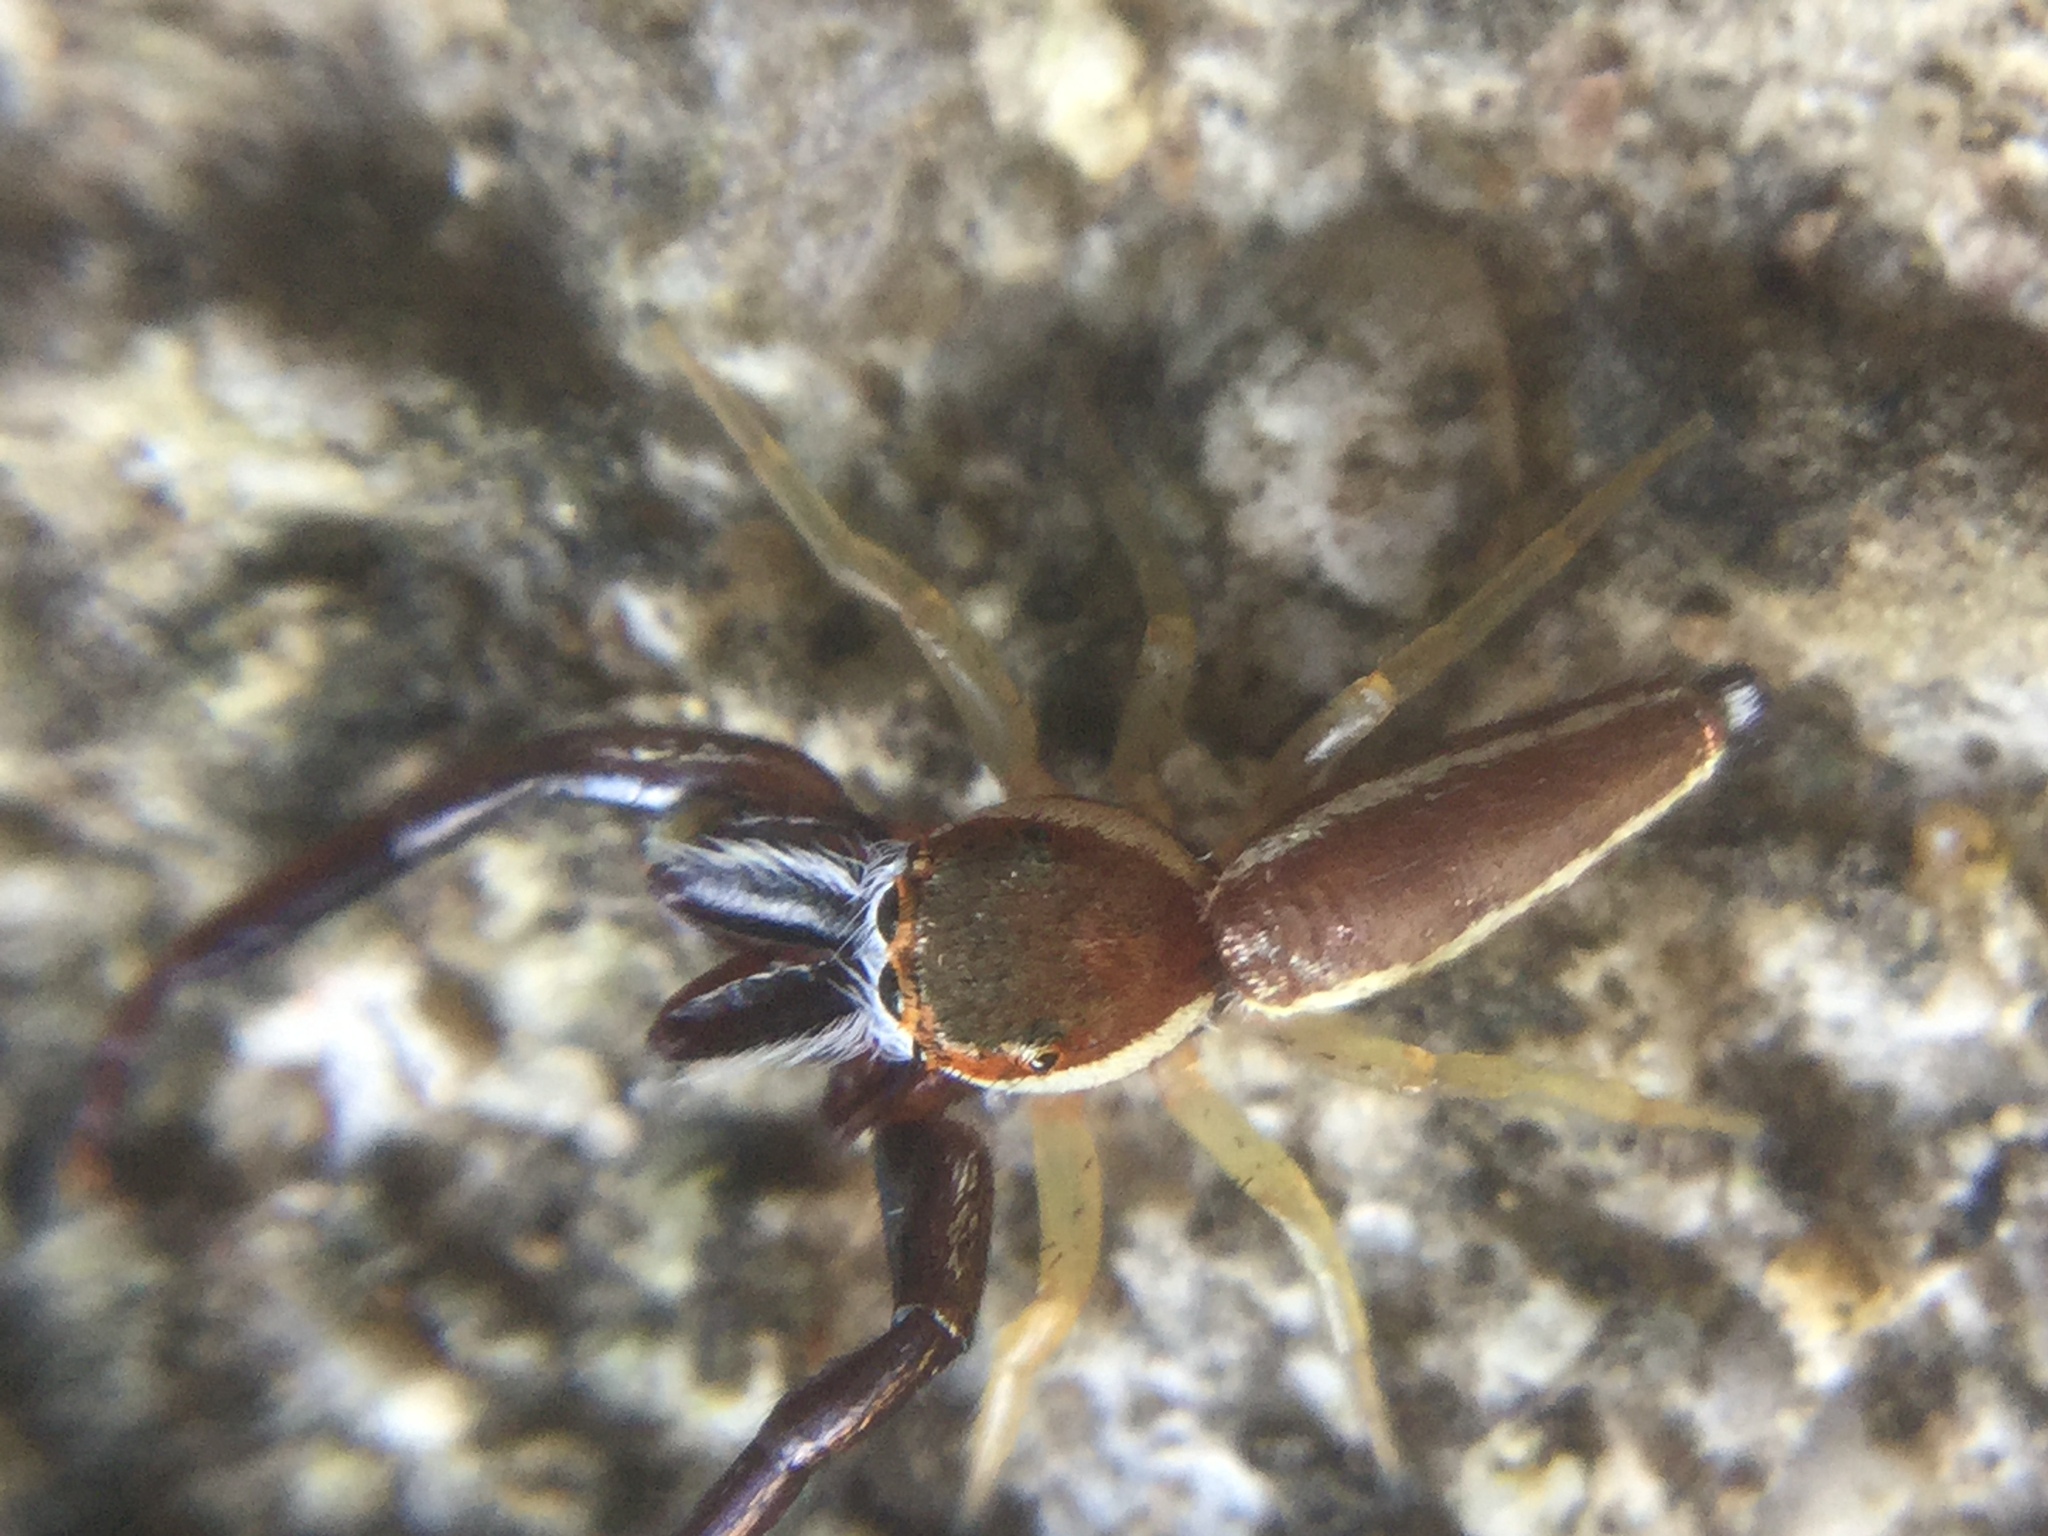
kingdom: Animalia
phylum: Arthropoda
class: Arachnida
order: Araneae
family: Salticidae
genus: Hentzia
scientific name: Hentzia palmarum
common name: Common hentz jumping spider
